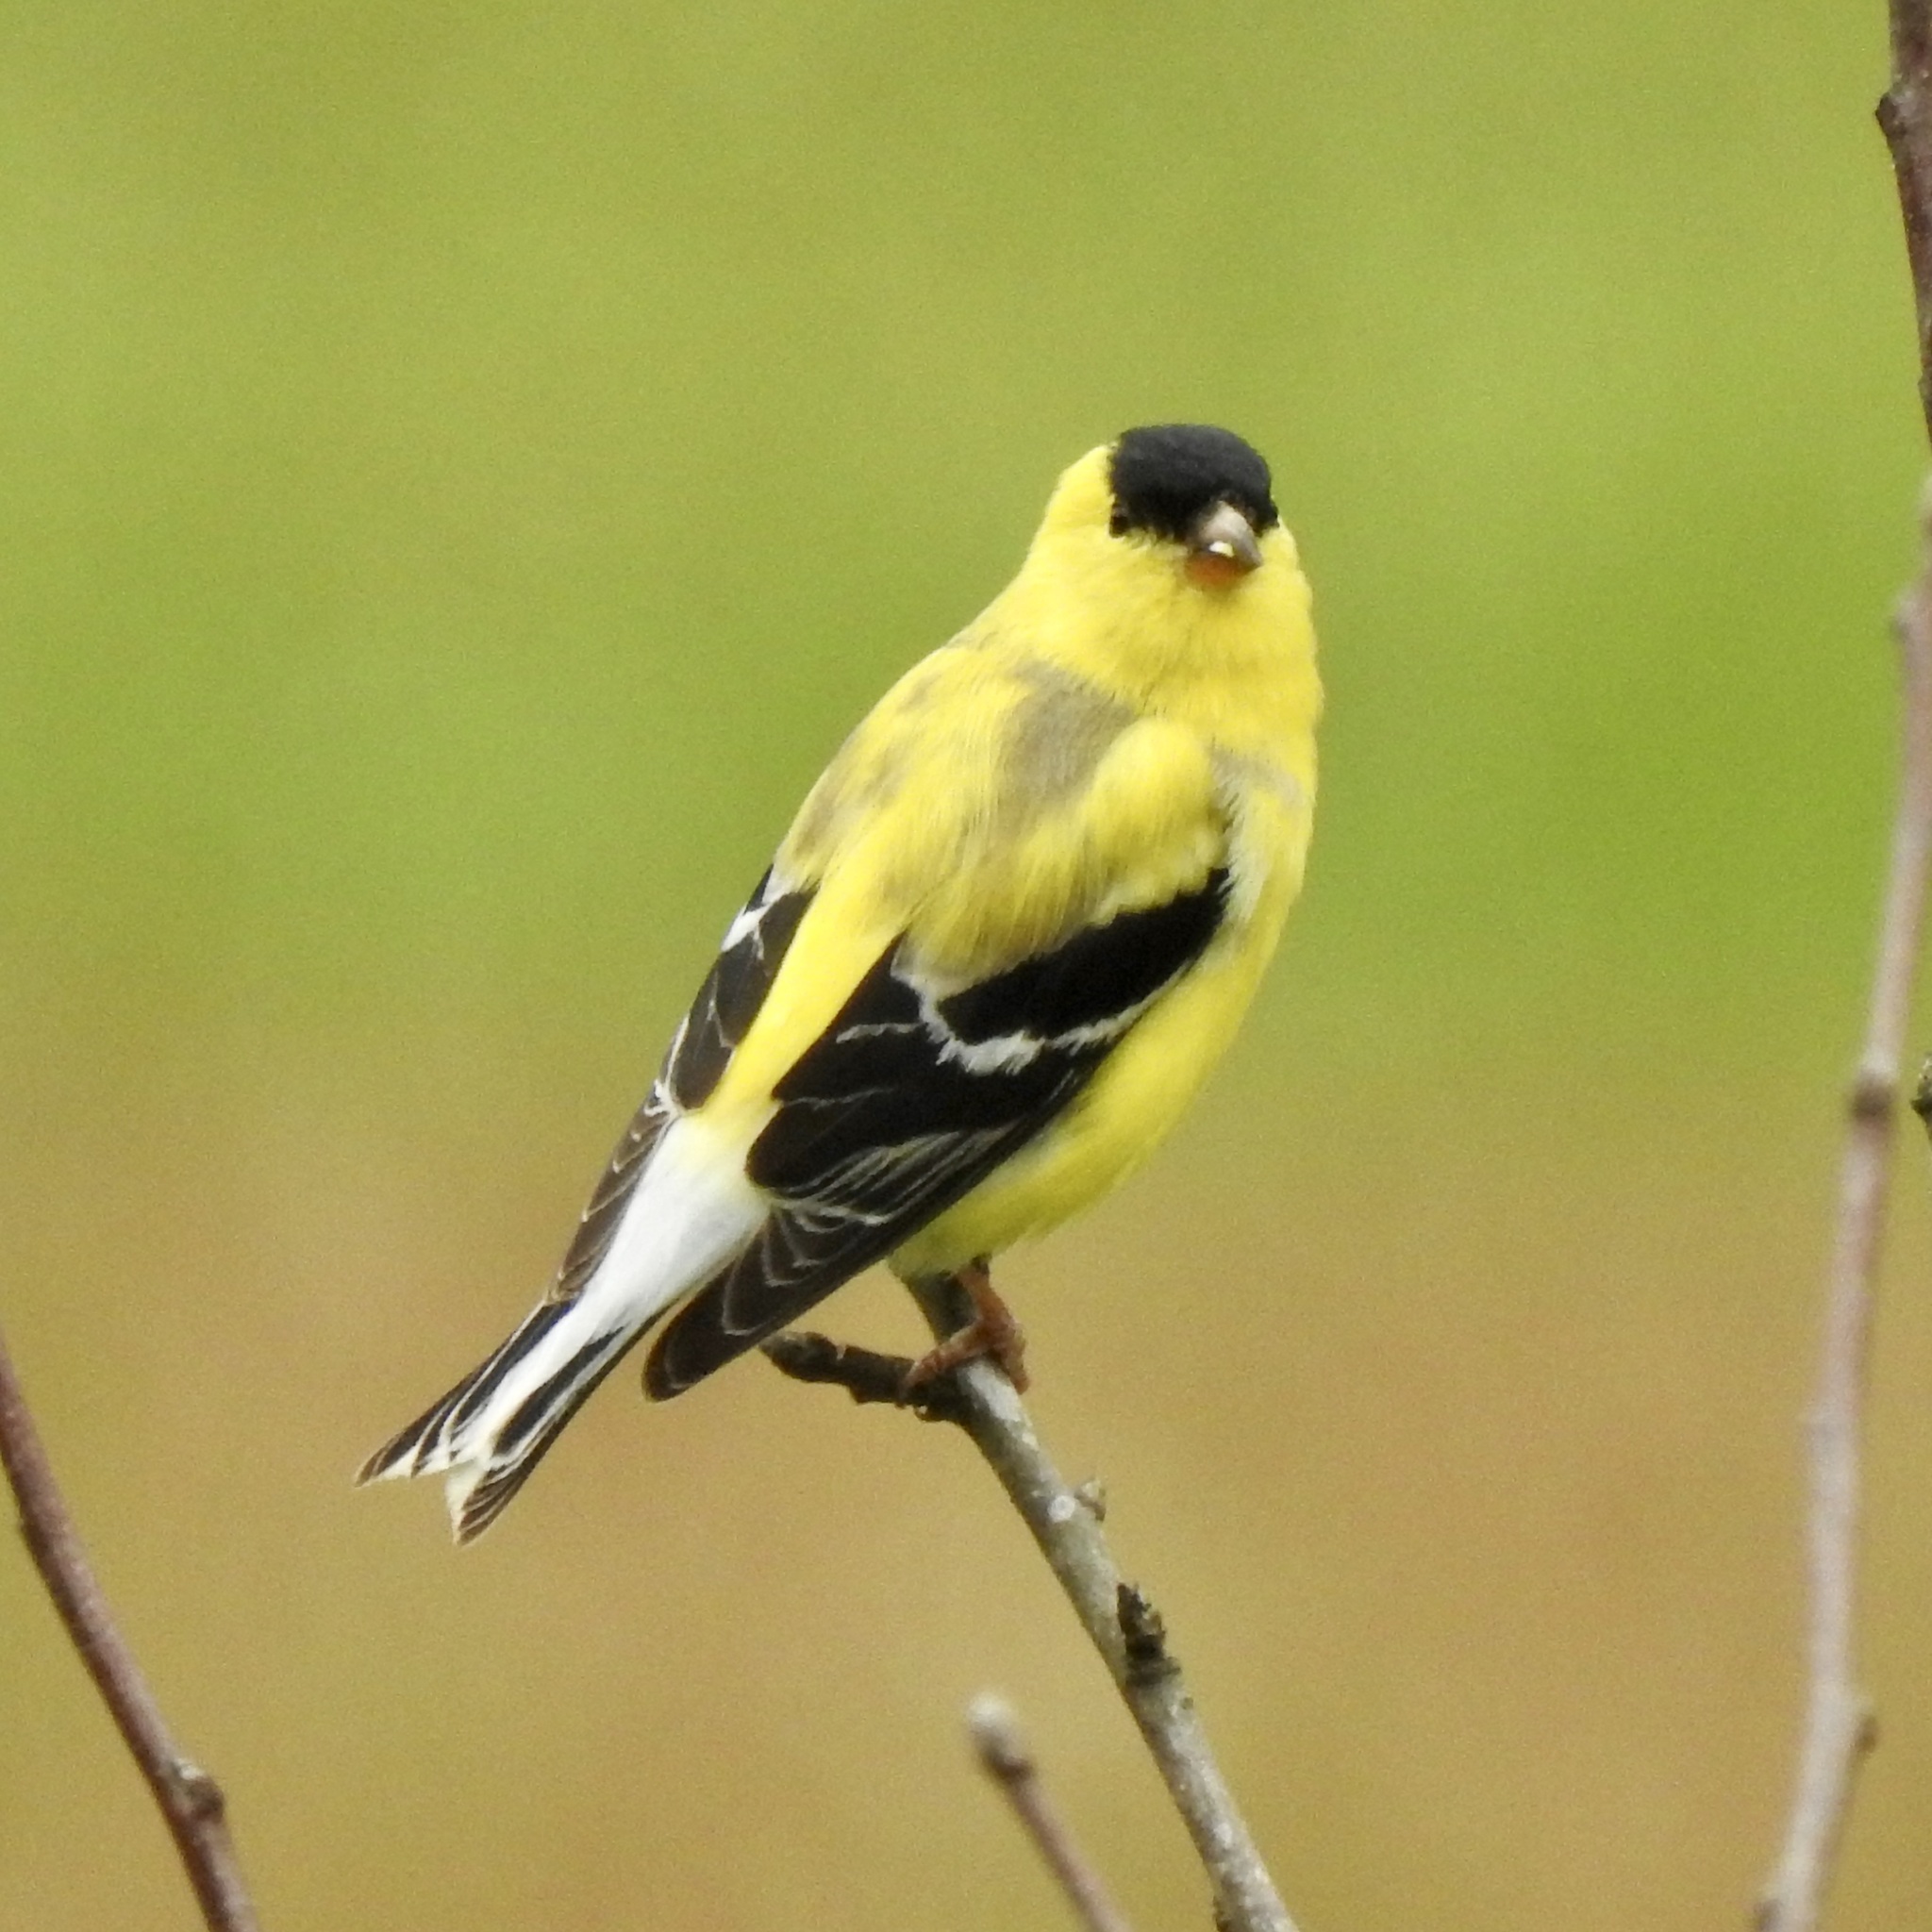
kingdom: Animalia
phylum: Chordata
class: Aves
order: Passeriformes
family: Fringillidae
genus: Spinus
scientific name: Spinus tristis
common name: American goldfinch
